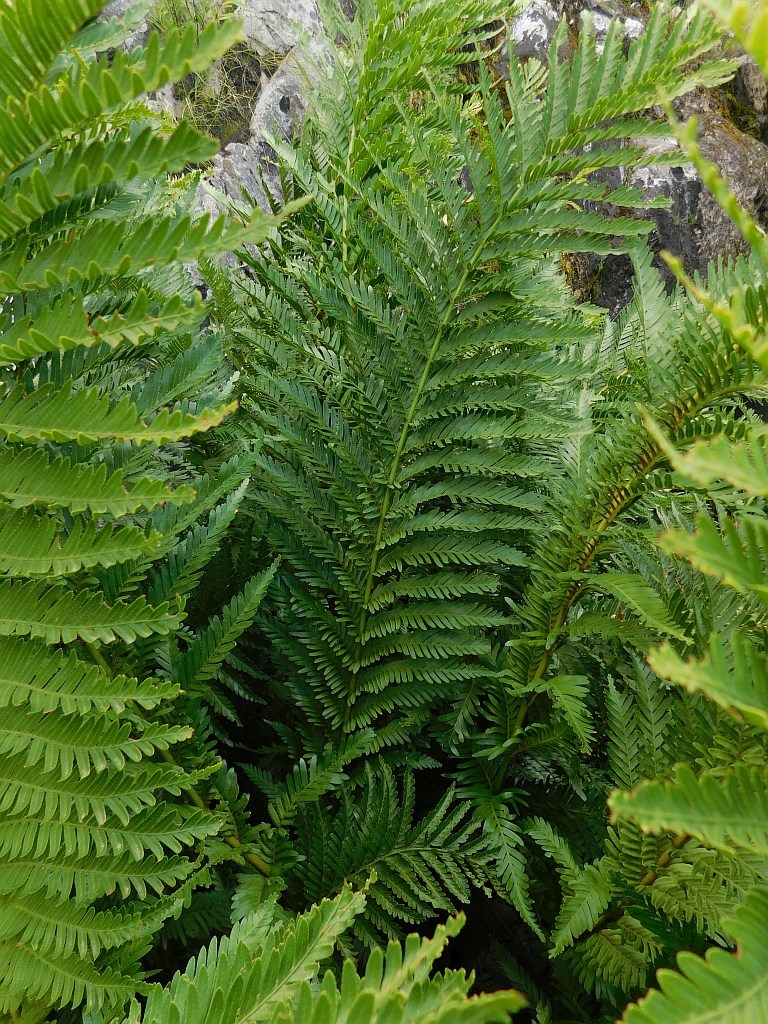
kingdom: Plantae
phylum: Tracheophyta
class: Polypodiopsida
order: Osmundales
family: Osmundaceae
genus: Todea
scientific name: Todea barbara
